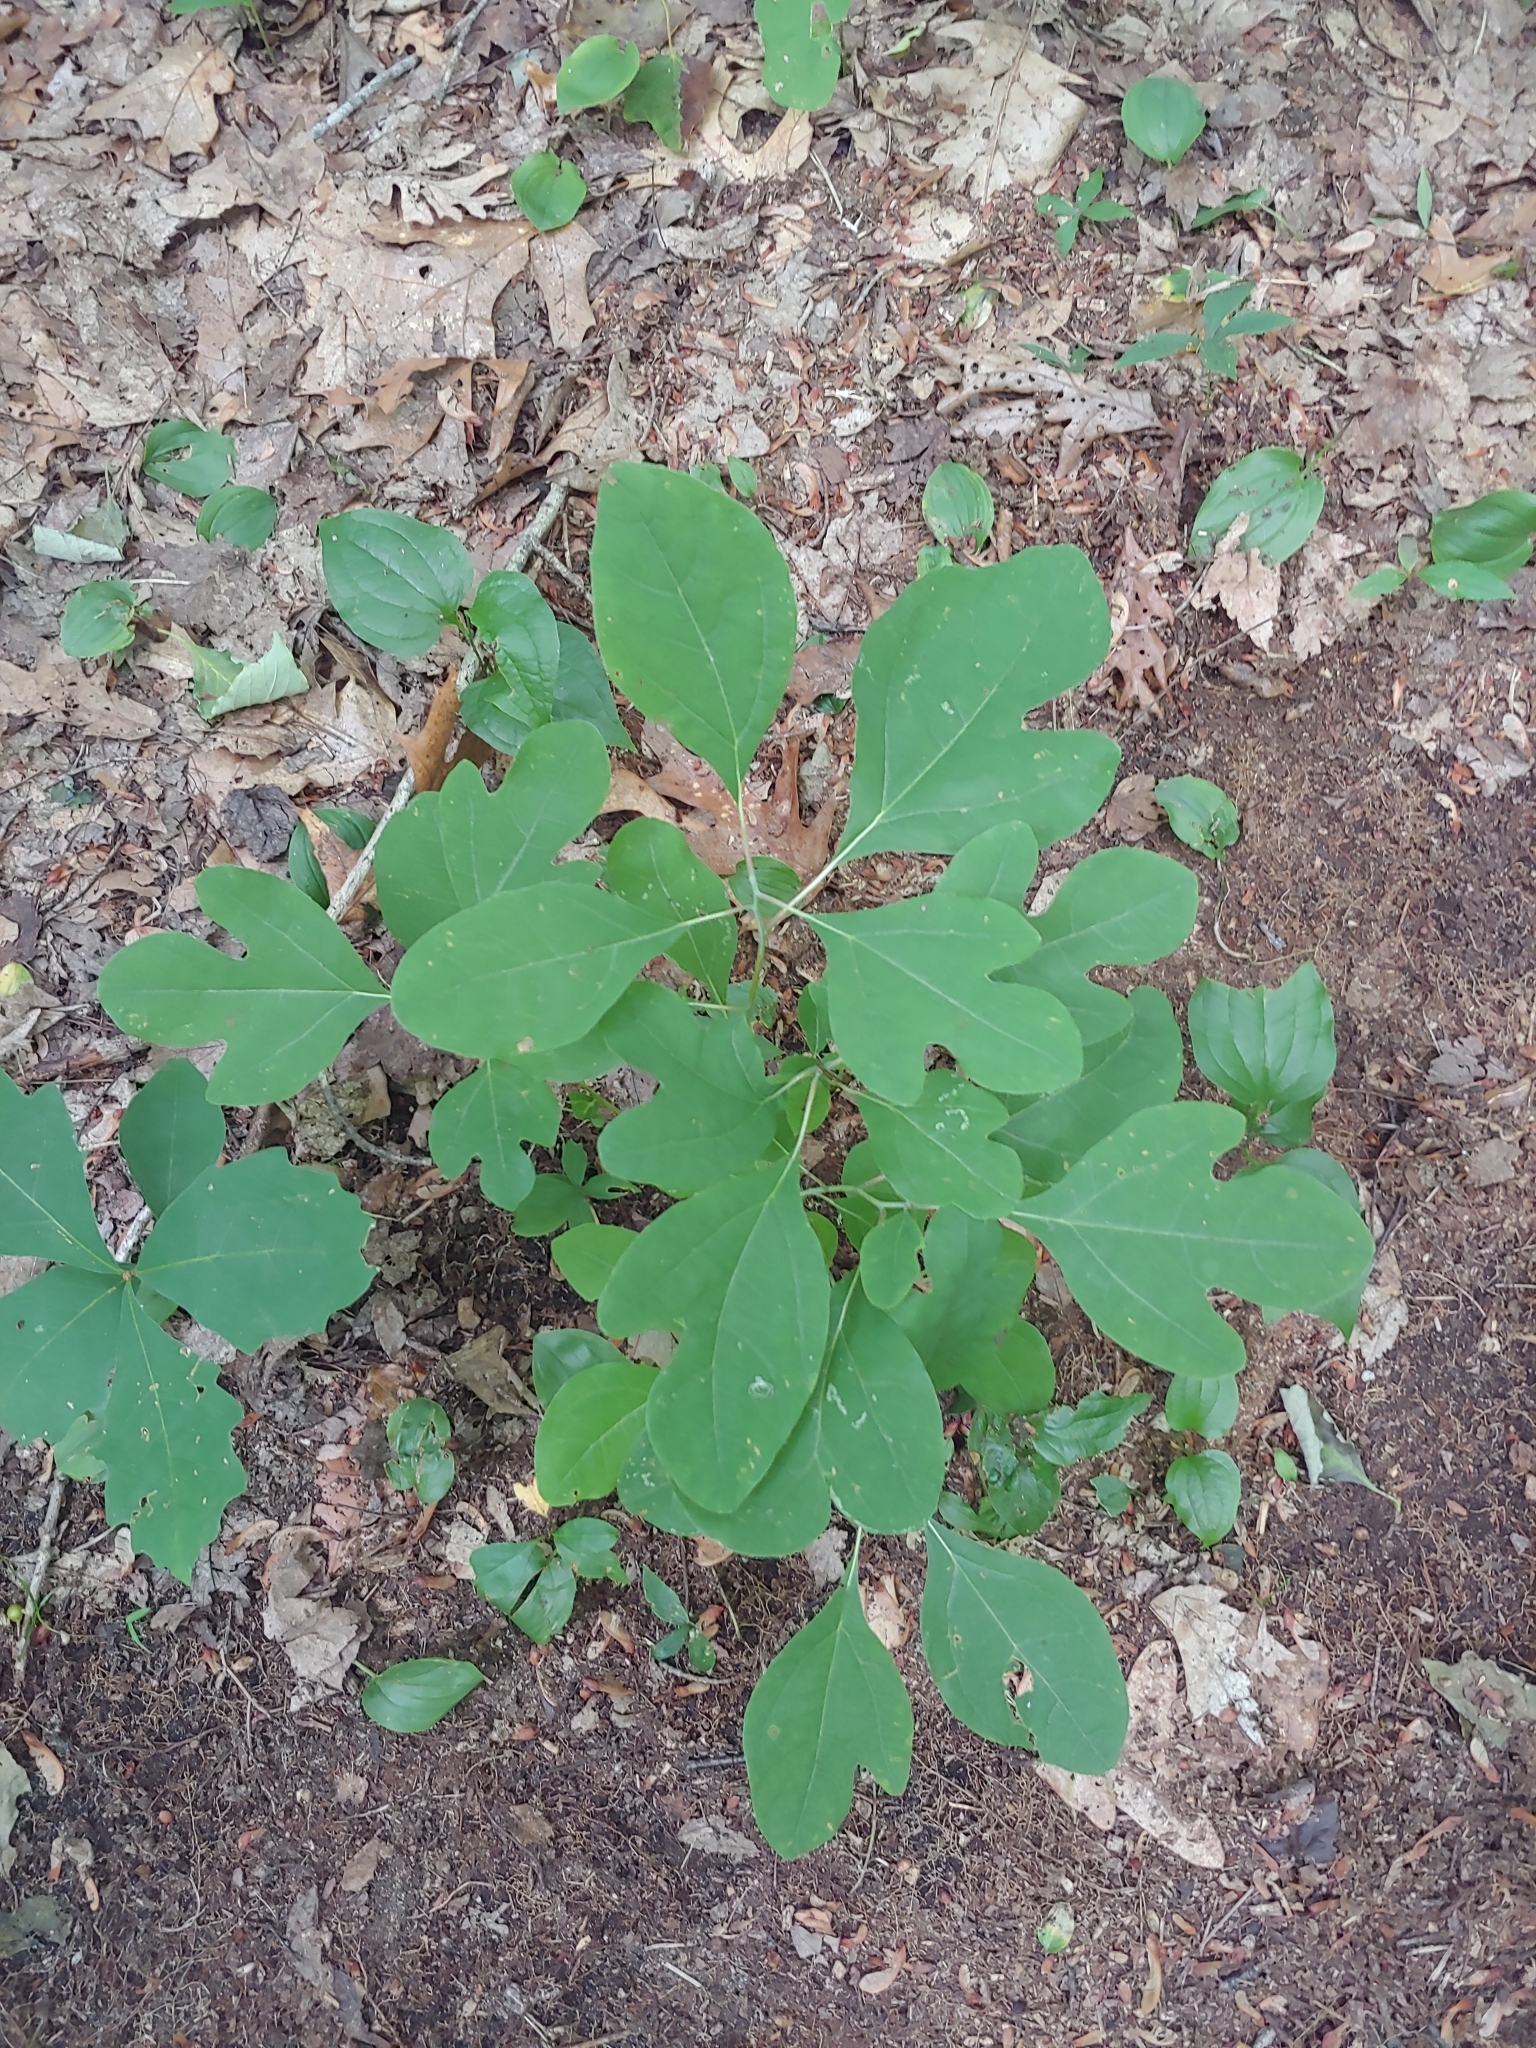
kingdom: Plantae
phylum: Tracheophyta
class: Magnoliopsida
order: Laurales
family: Lauraceae
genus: Sassafras
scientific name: Sassafras albidum
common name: Sassafras
